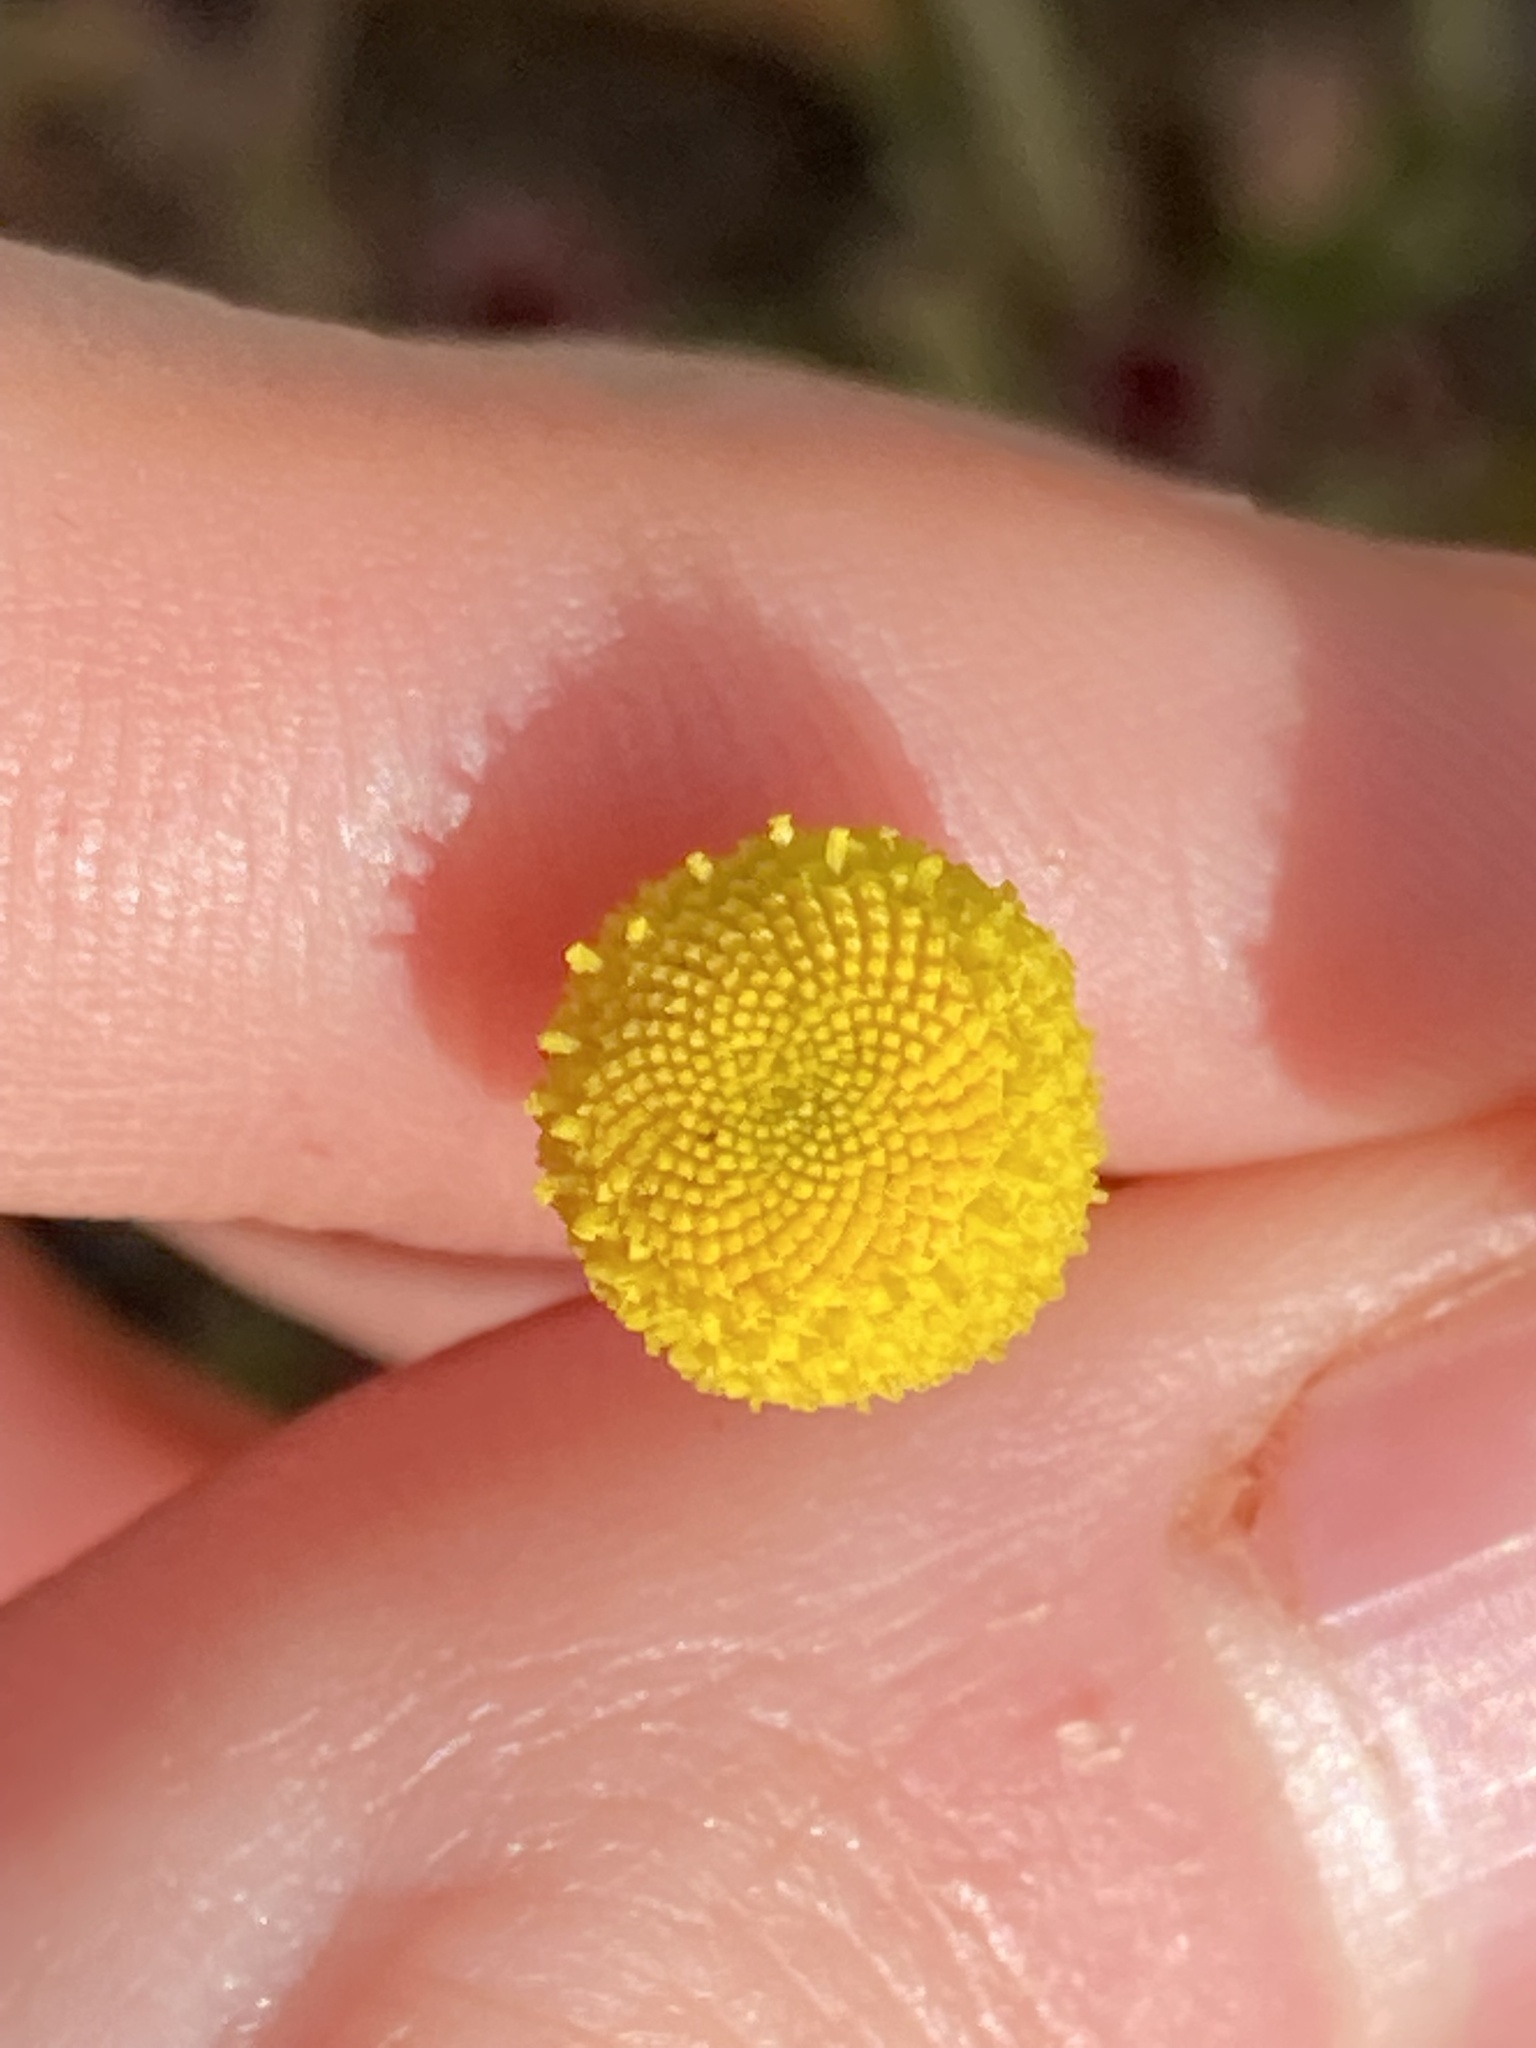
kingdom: Plantae
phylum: Tracheophyta
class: Magnoliopsida
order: Asterales
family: Asteraceae
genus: Oncosiphon
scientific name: Oncosiphon pilulifer
